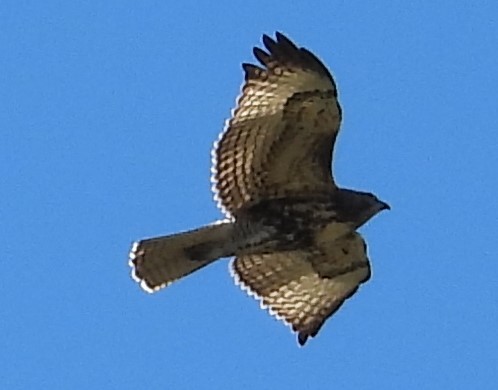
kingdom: Animalia
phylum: Chordata
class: Aves
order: Accipitriformes
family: Accipitridae
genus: Buteo
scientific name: Buteo jamaicensis
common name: Red-tailed hawk
